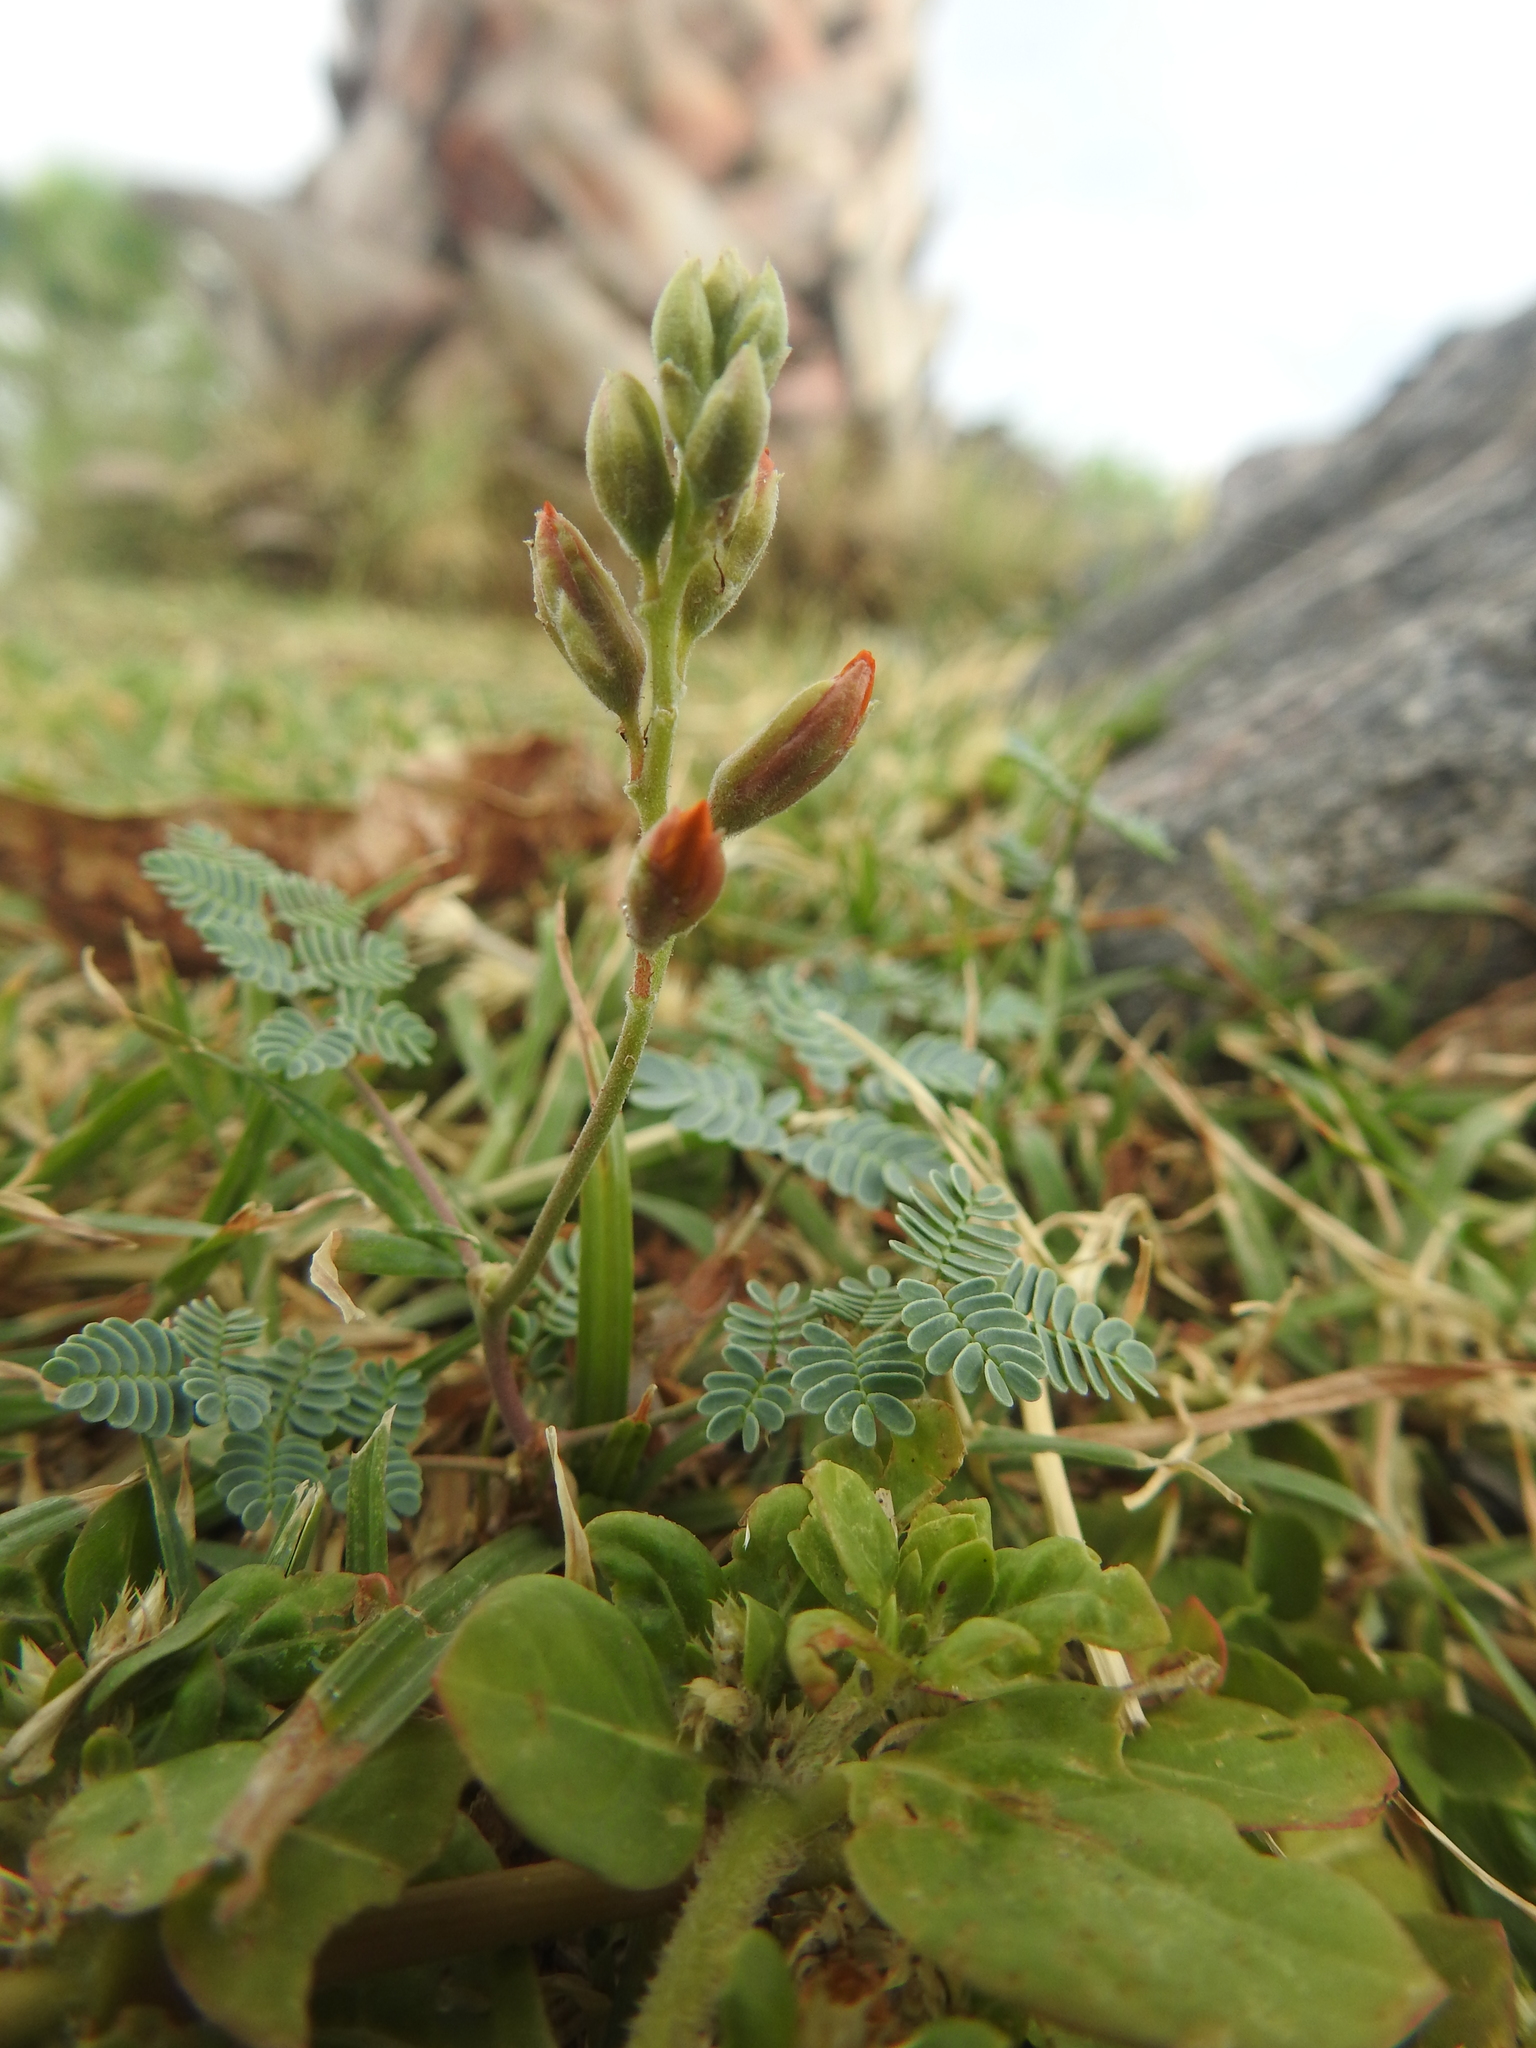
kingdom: Plantae
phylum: Tracheophyta
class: Magnoliopsida
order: Fabales
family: Fabaceae
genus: Hoffmannseggia
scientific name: Hoffmannseggia glauca
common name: Pignut
